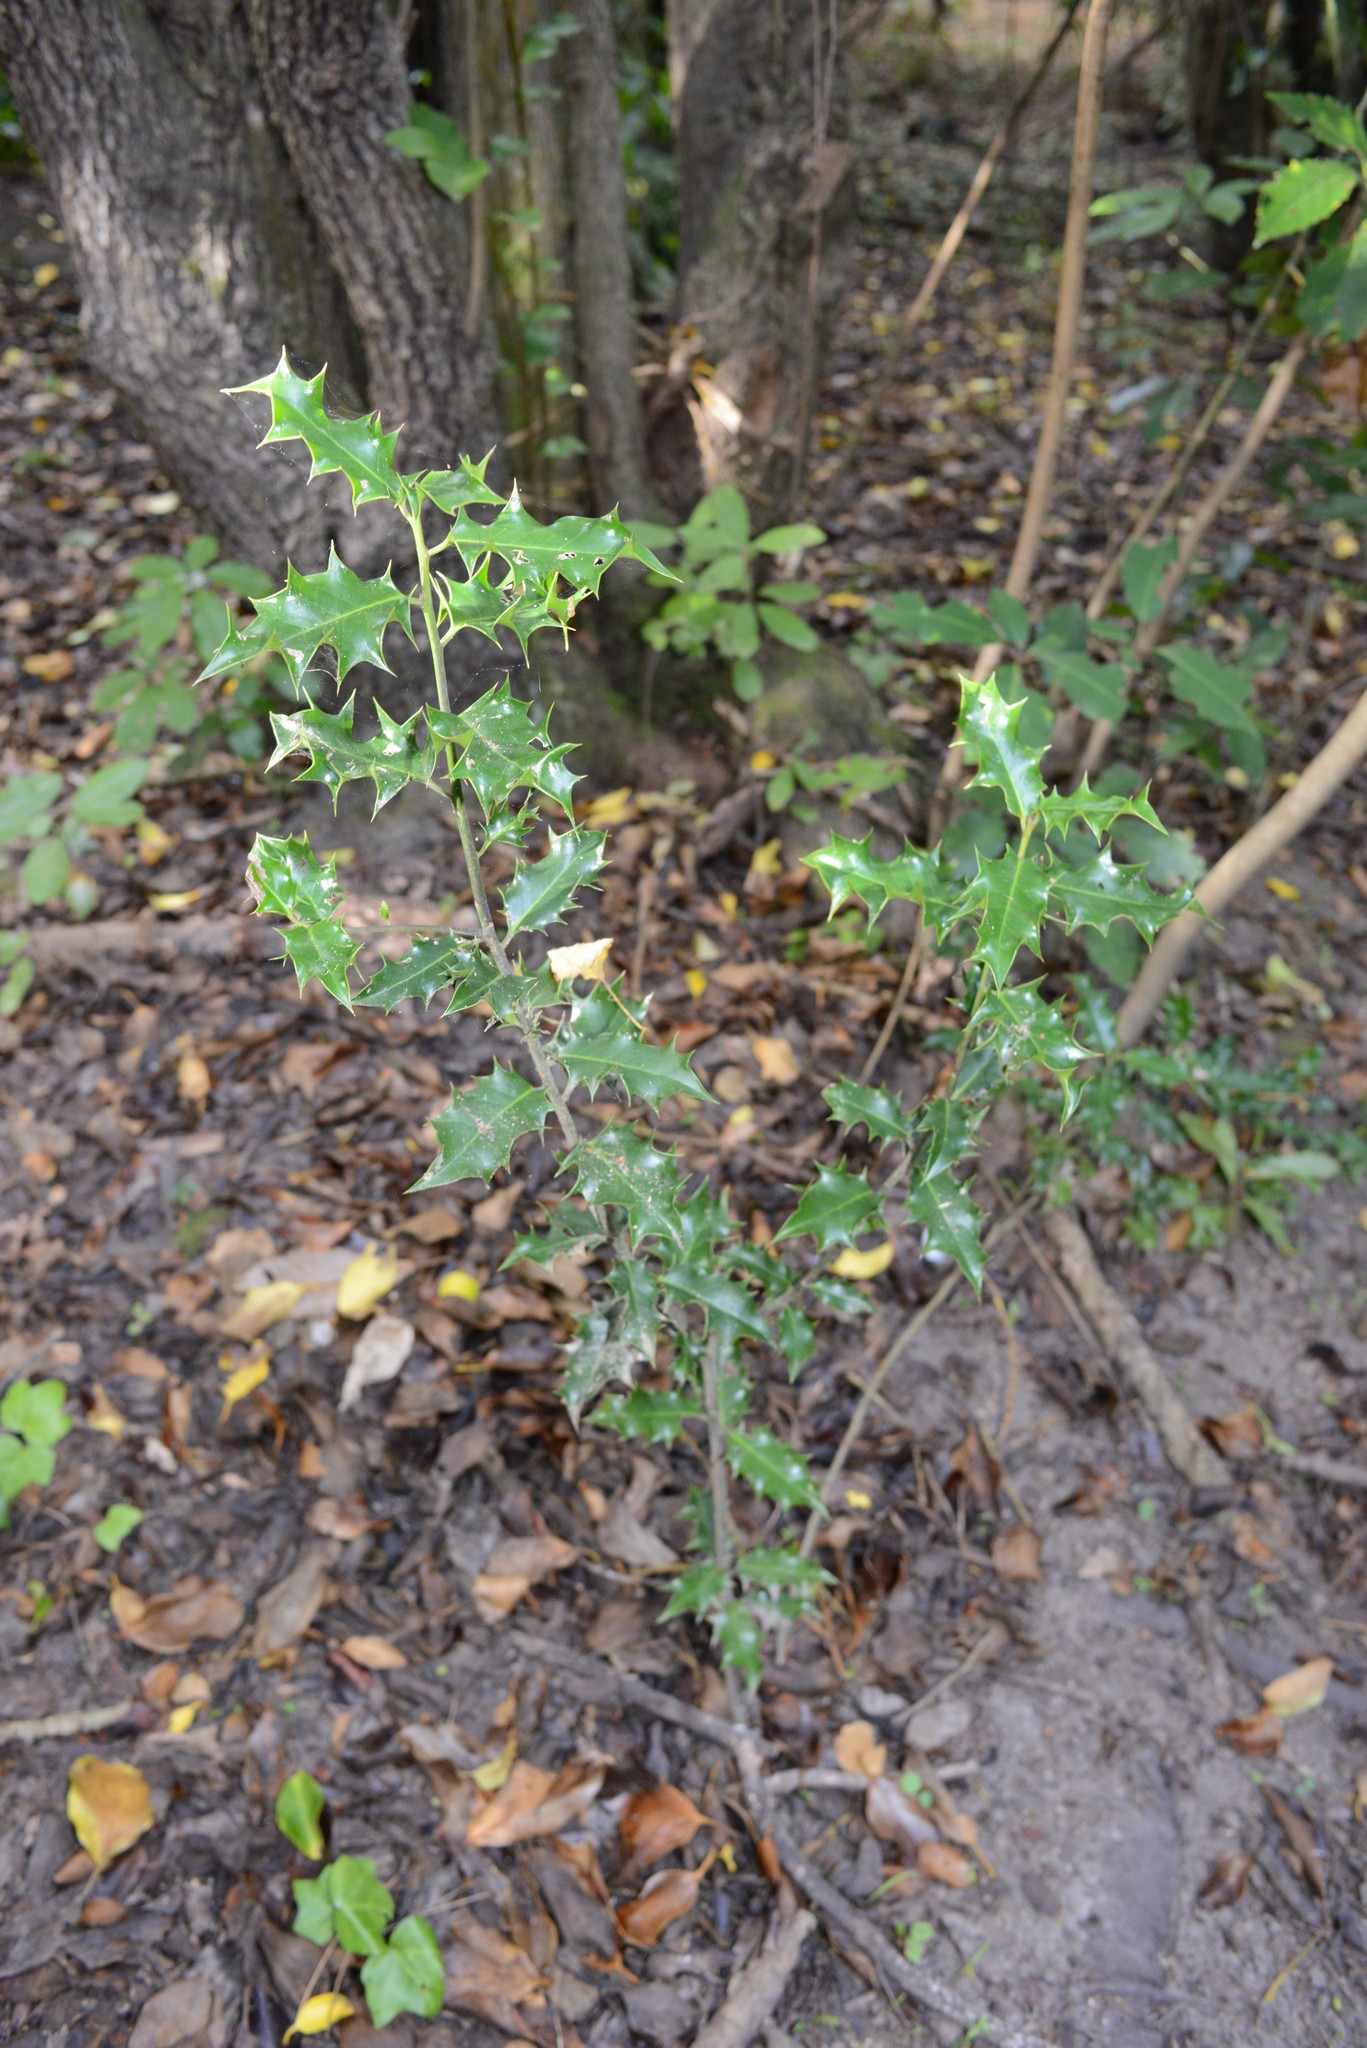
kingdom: Plantae
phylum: Tracheophyta
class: Magnoliopsida
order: Aquifoliales
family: Aquifoliaceae
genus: Ilex
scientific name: Ilex aquifolium
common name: English holly
